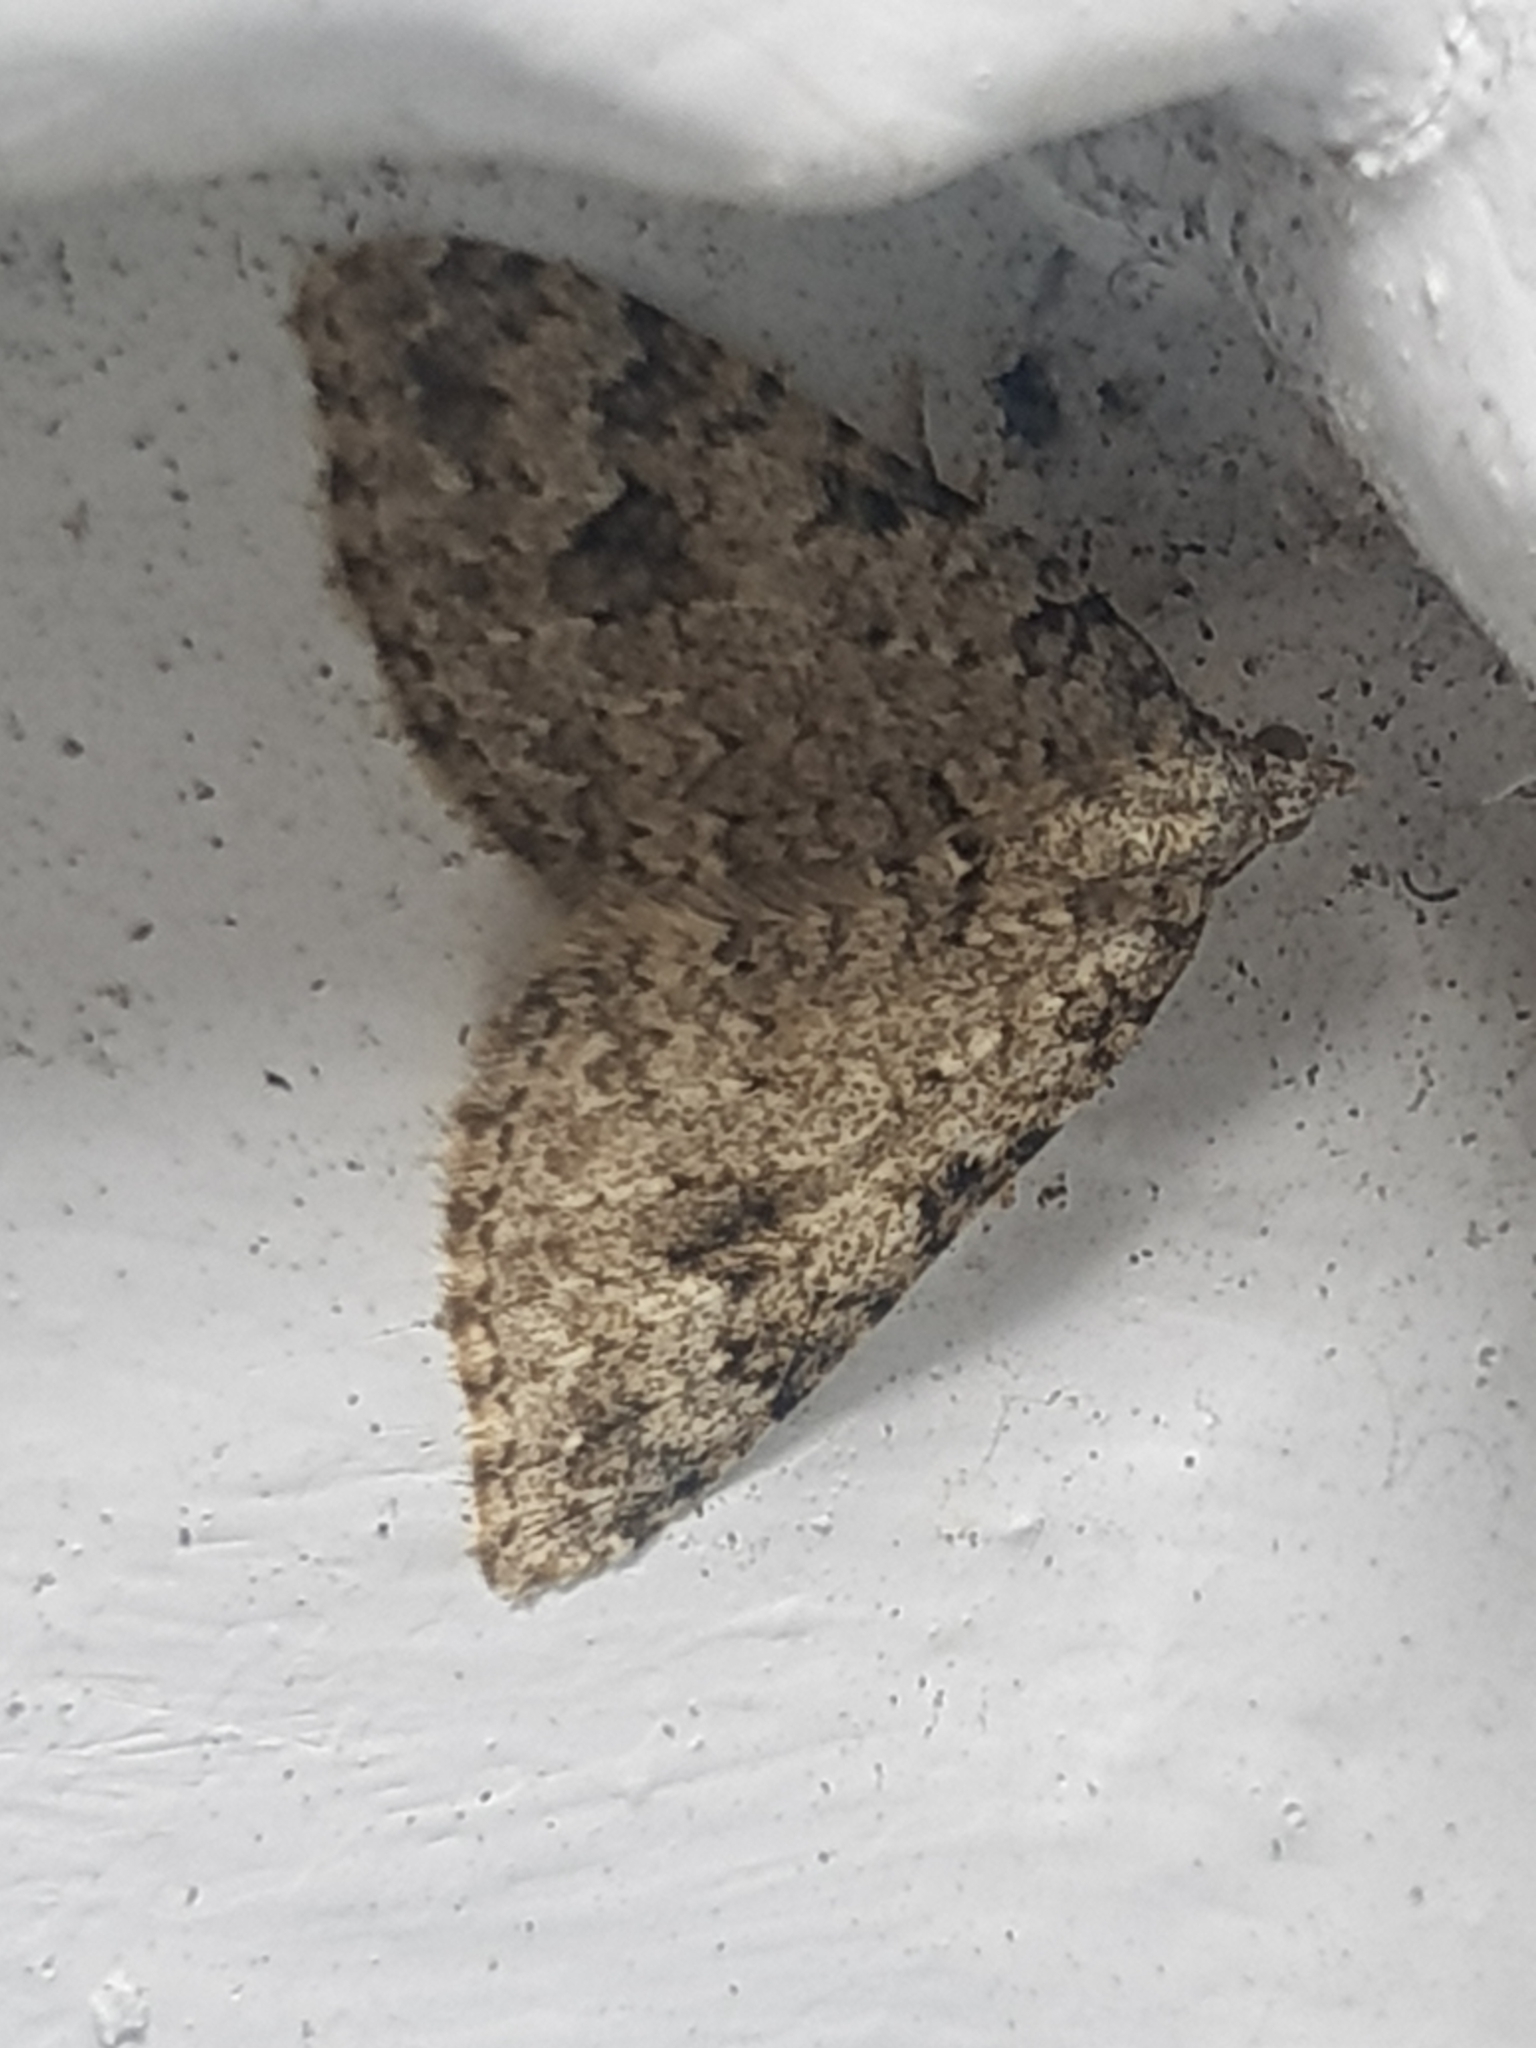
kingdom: Animalia
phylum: Arthropoda
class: Insecta
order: Lepidoptera
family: Geometridae
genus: Helastia
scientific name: Helastia cinerearia
